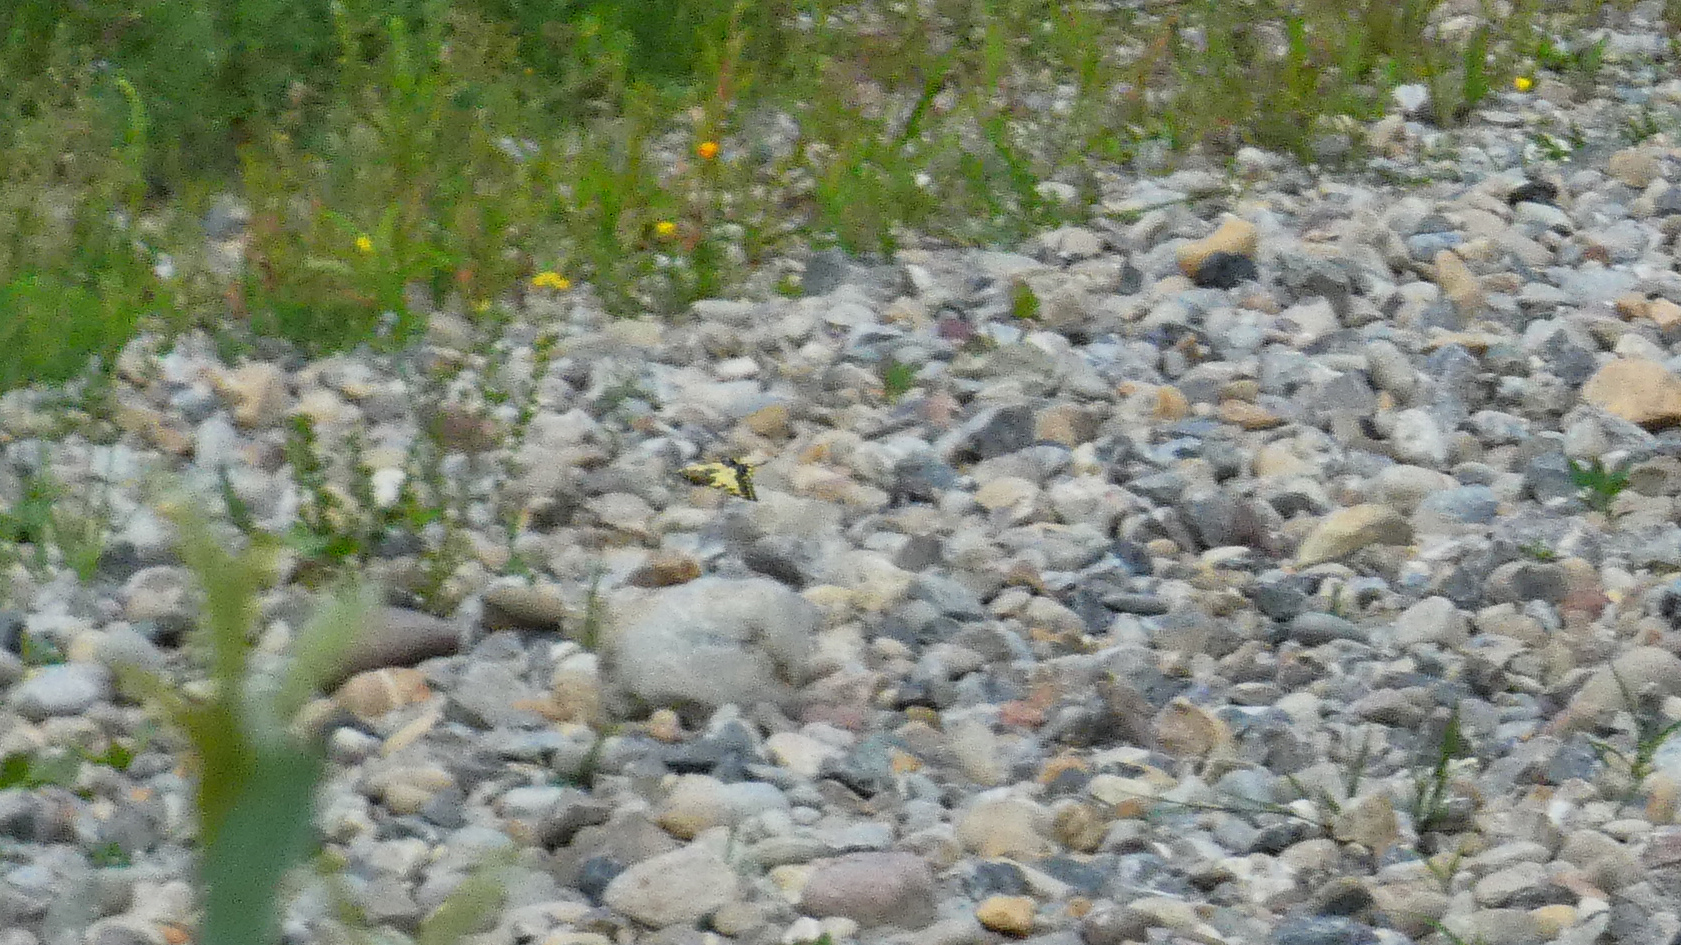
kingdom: Animalia
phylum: Arthropoda
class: Insecta
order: Lepidoptera
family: Papilionidae
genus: Papilio
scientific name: Papilio machaon
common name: Swallowtail
